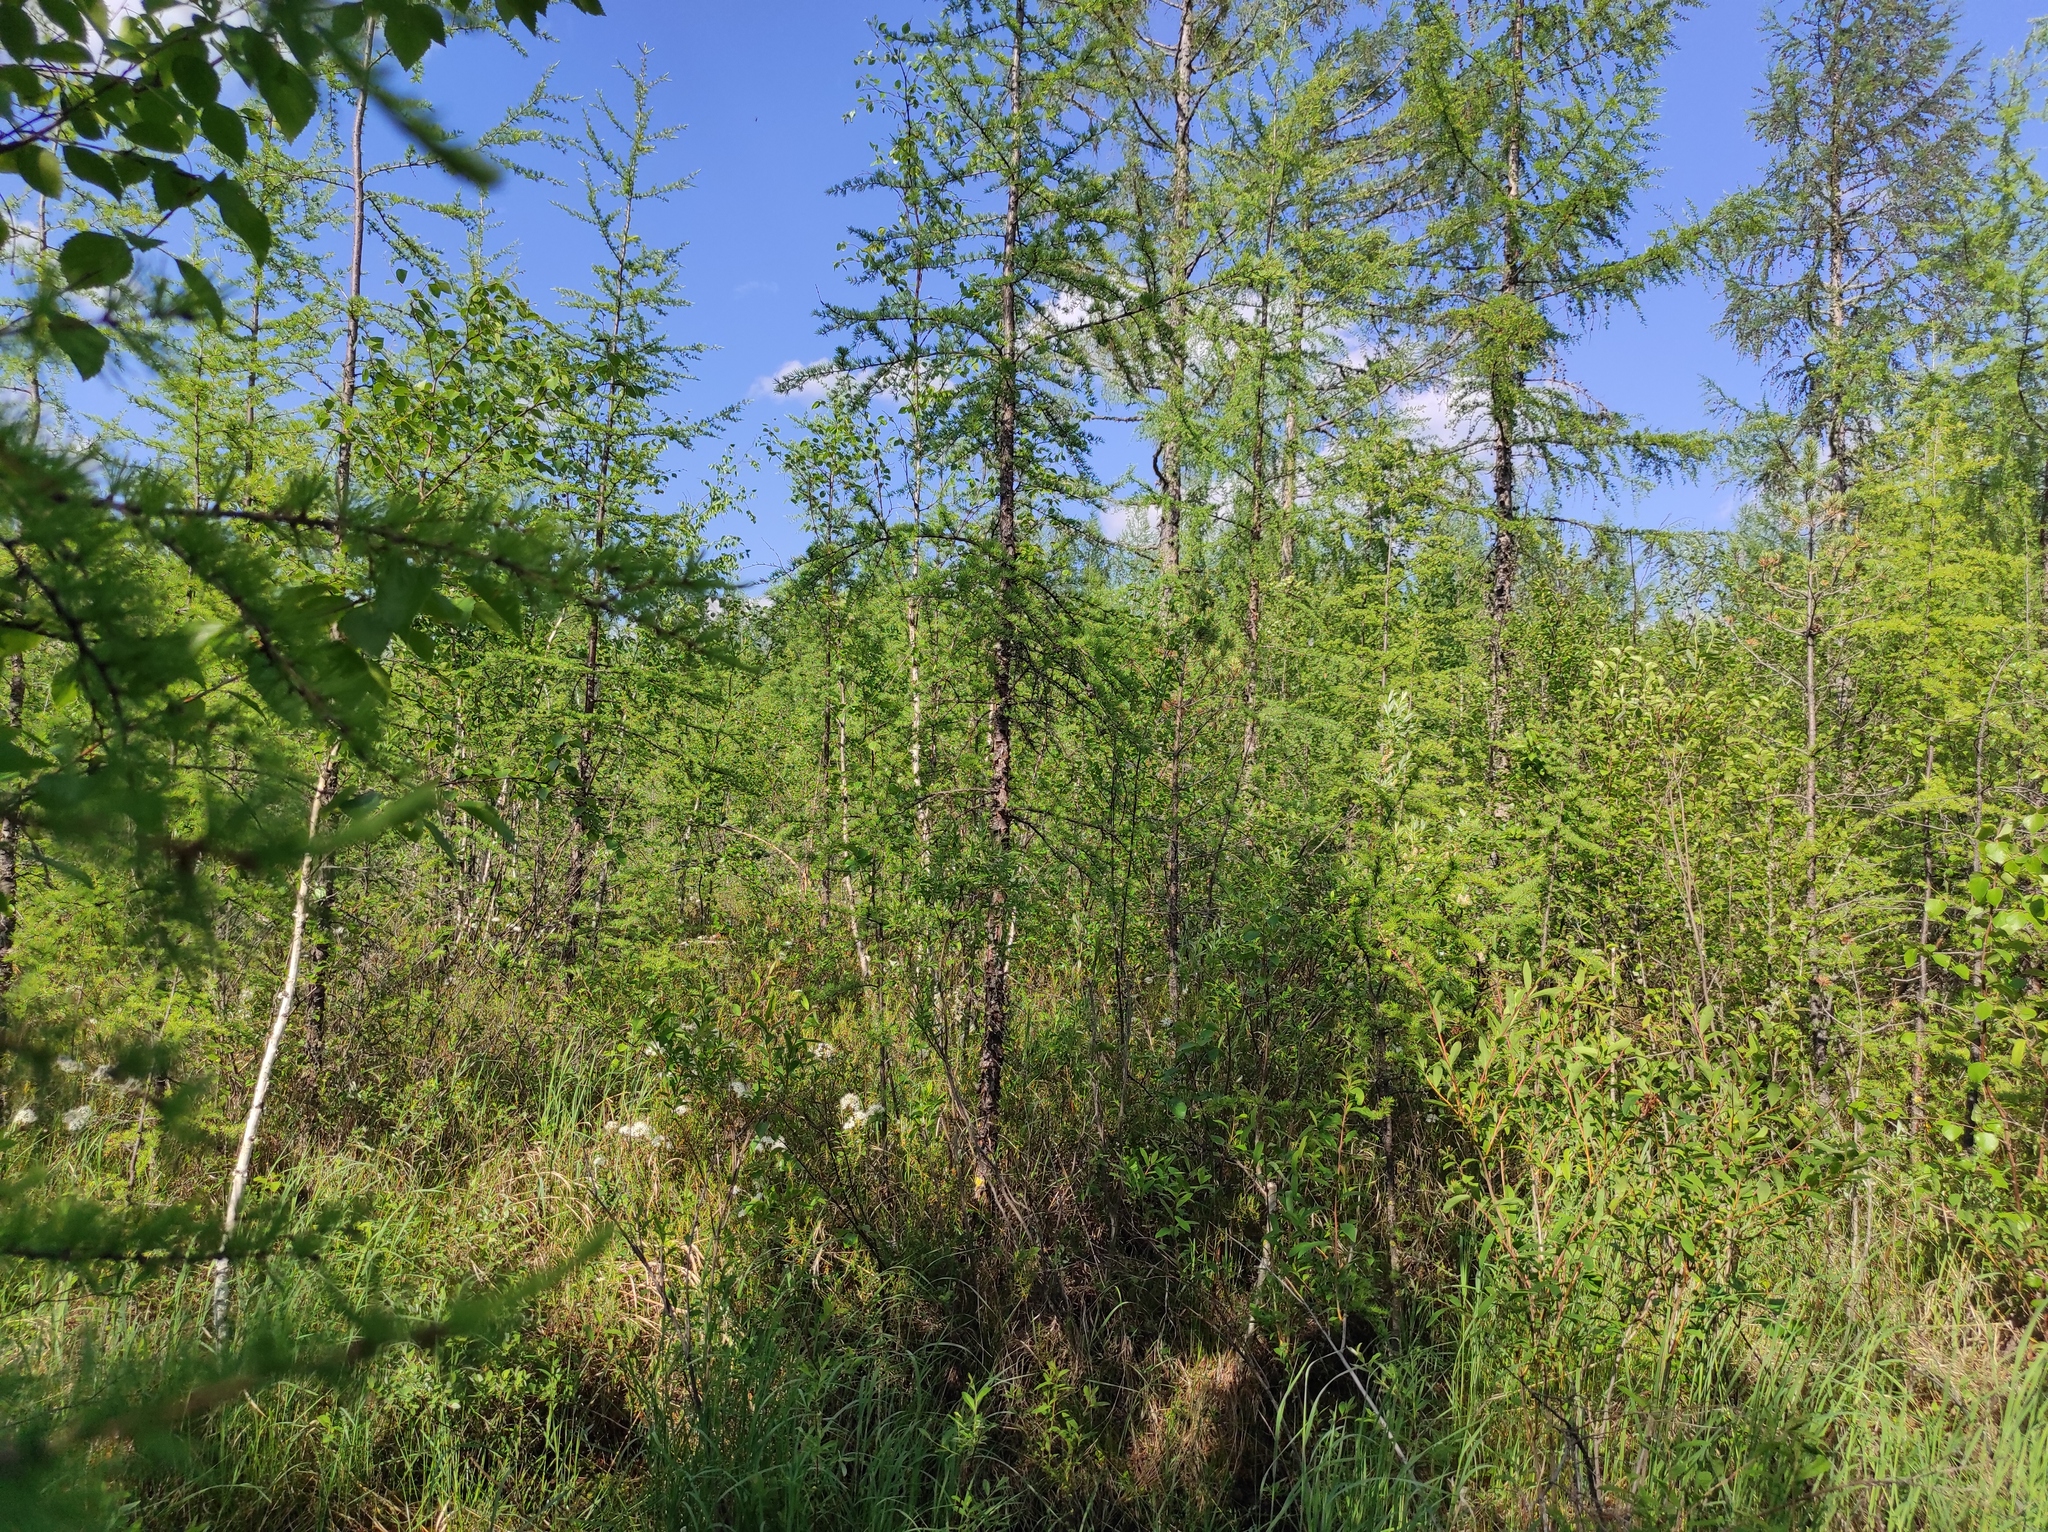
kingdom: Plantae
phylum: Tracheophyta
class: Magnoliopsida
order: Ericales
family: Ericaceae
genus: Rhododendron
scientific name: Rhododendron tomentosum
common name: Marsh labrador tea
